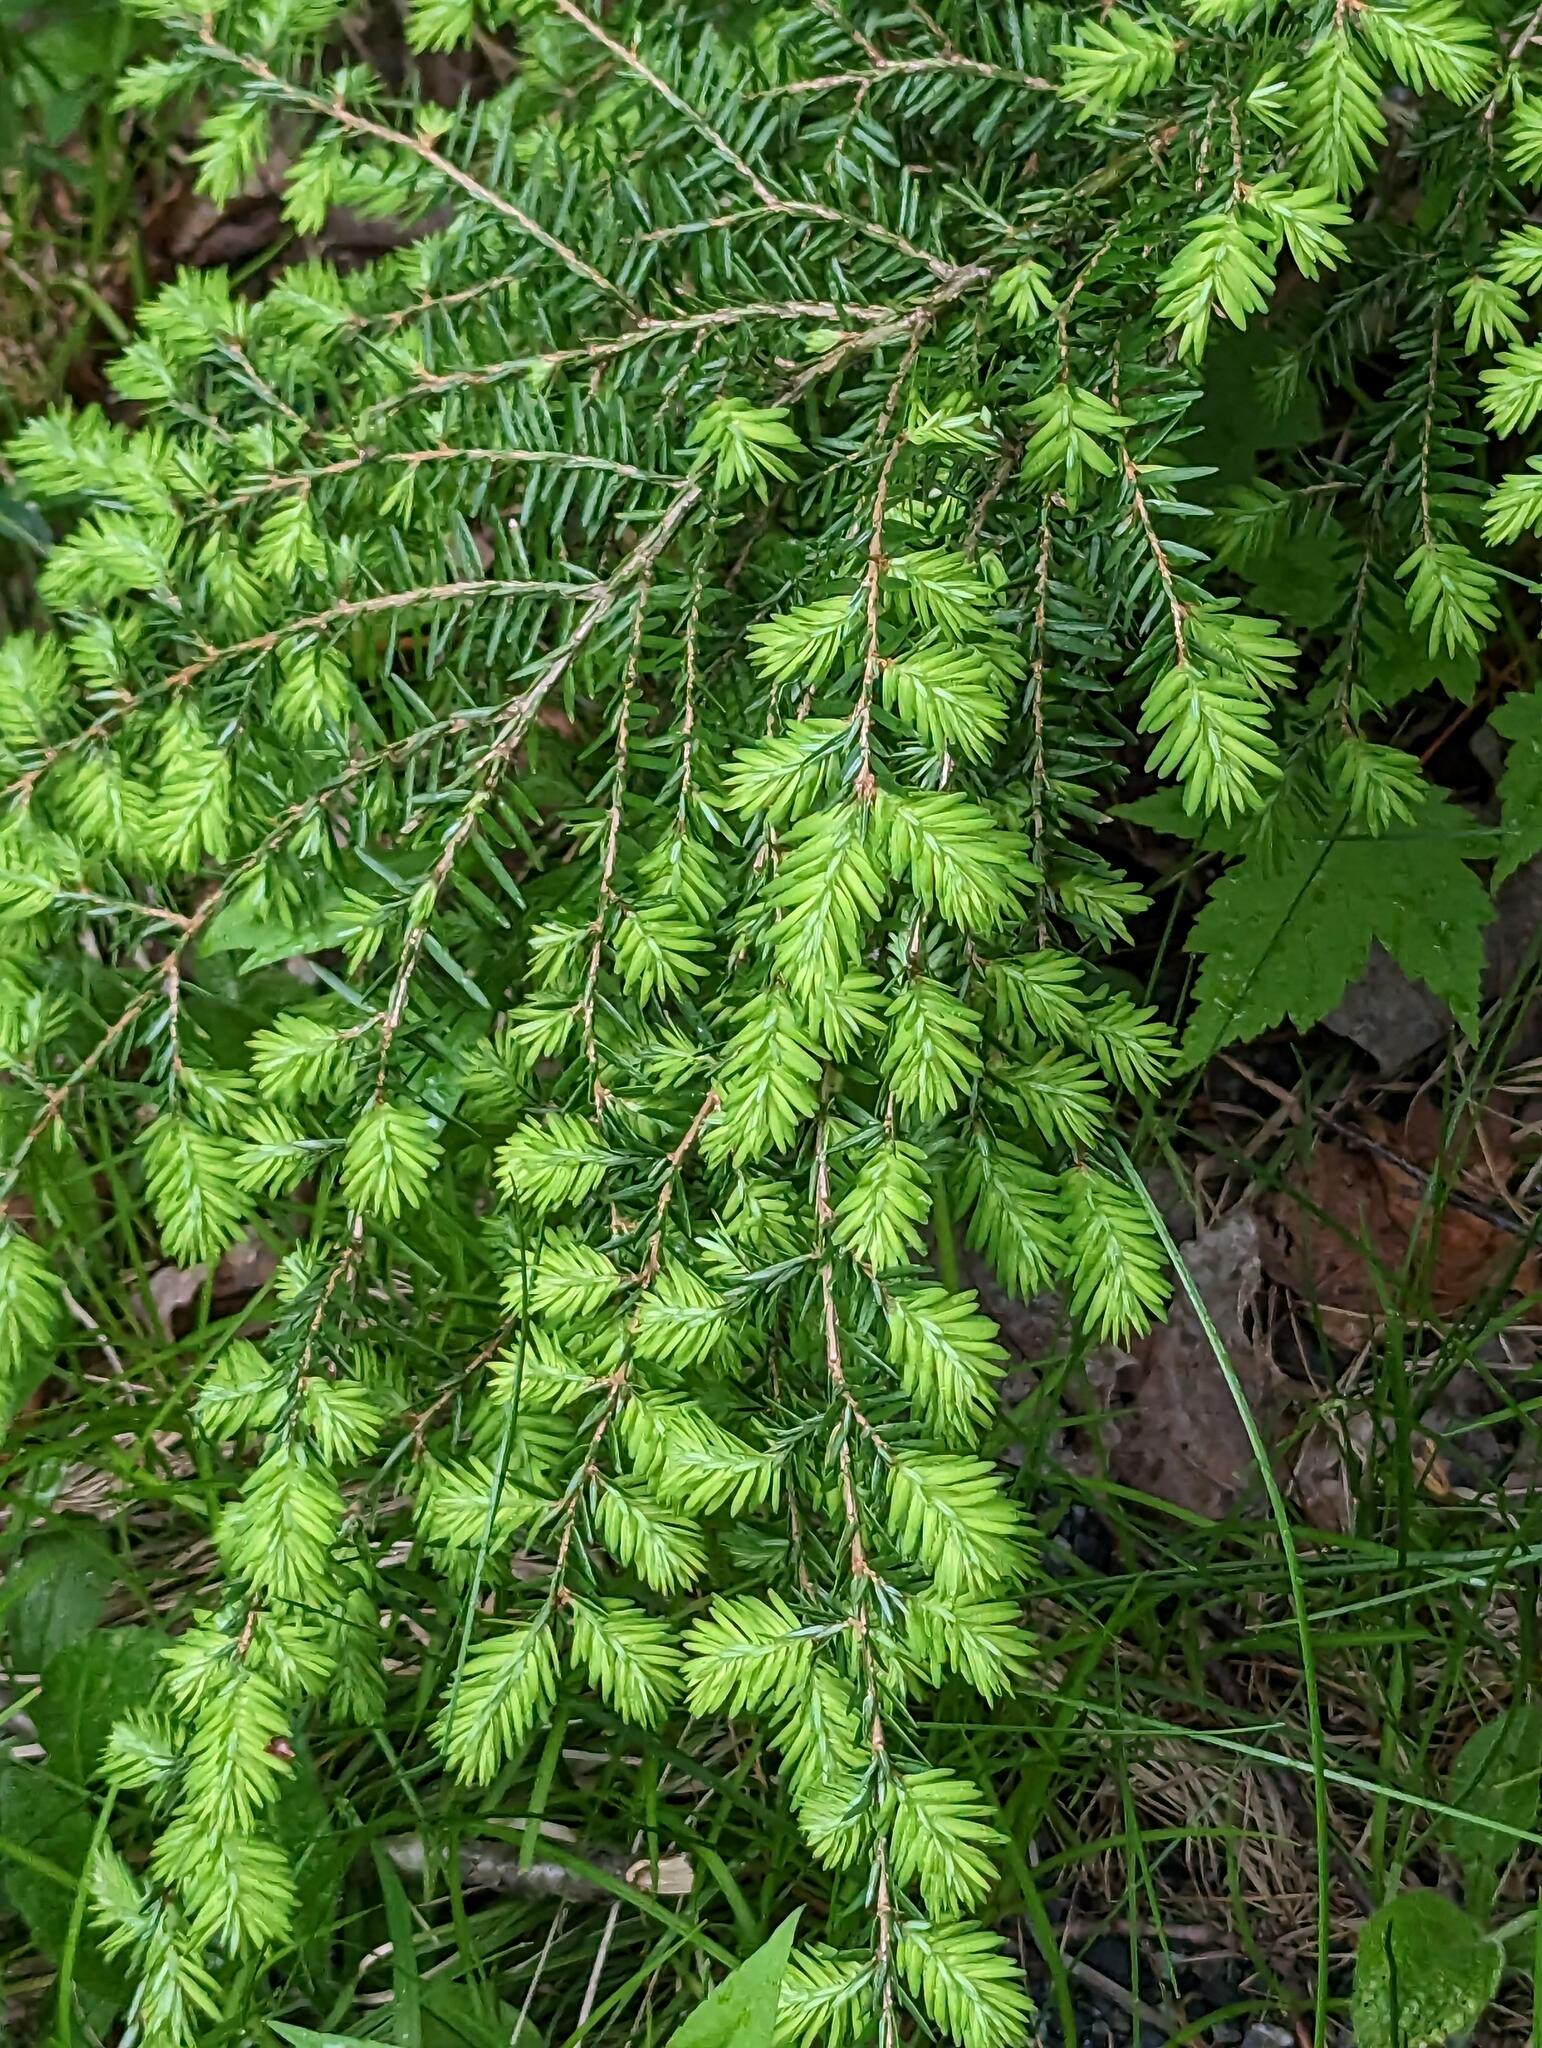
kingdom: Plantae
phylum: Tracheophyta
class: Pinopsida
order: Pinales
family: Pinaceae
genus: Tsuga
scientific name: Tsuga canadensis
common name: Eastern hemlock
